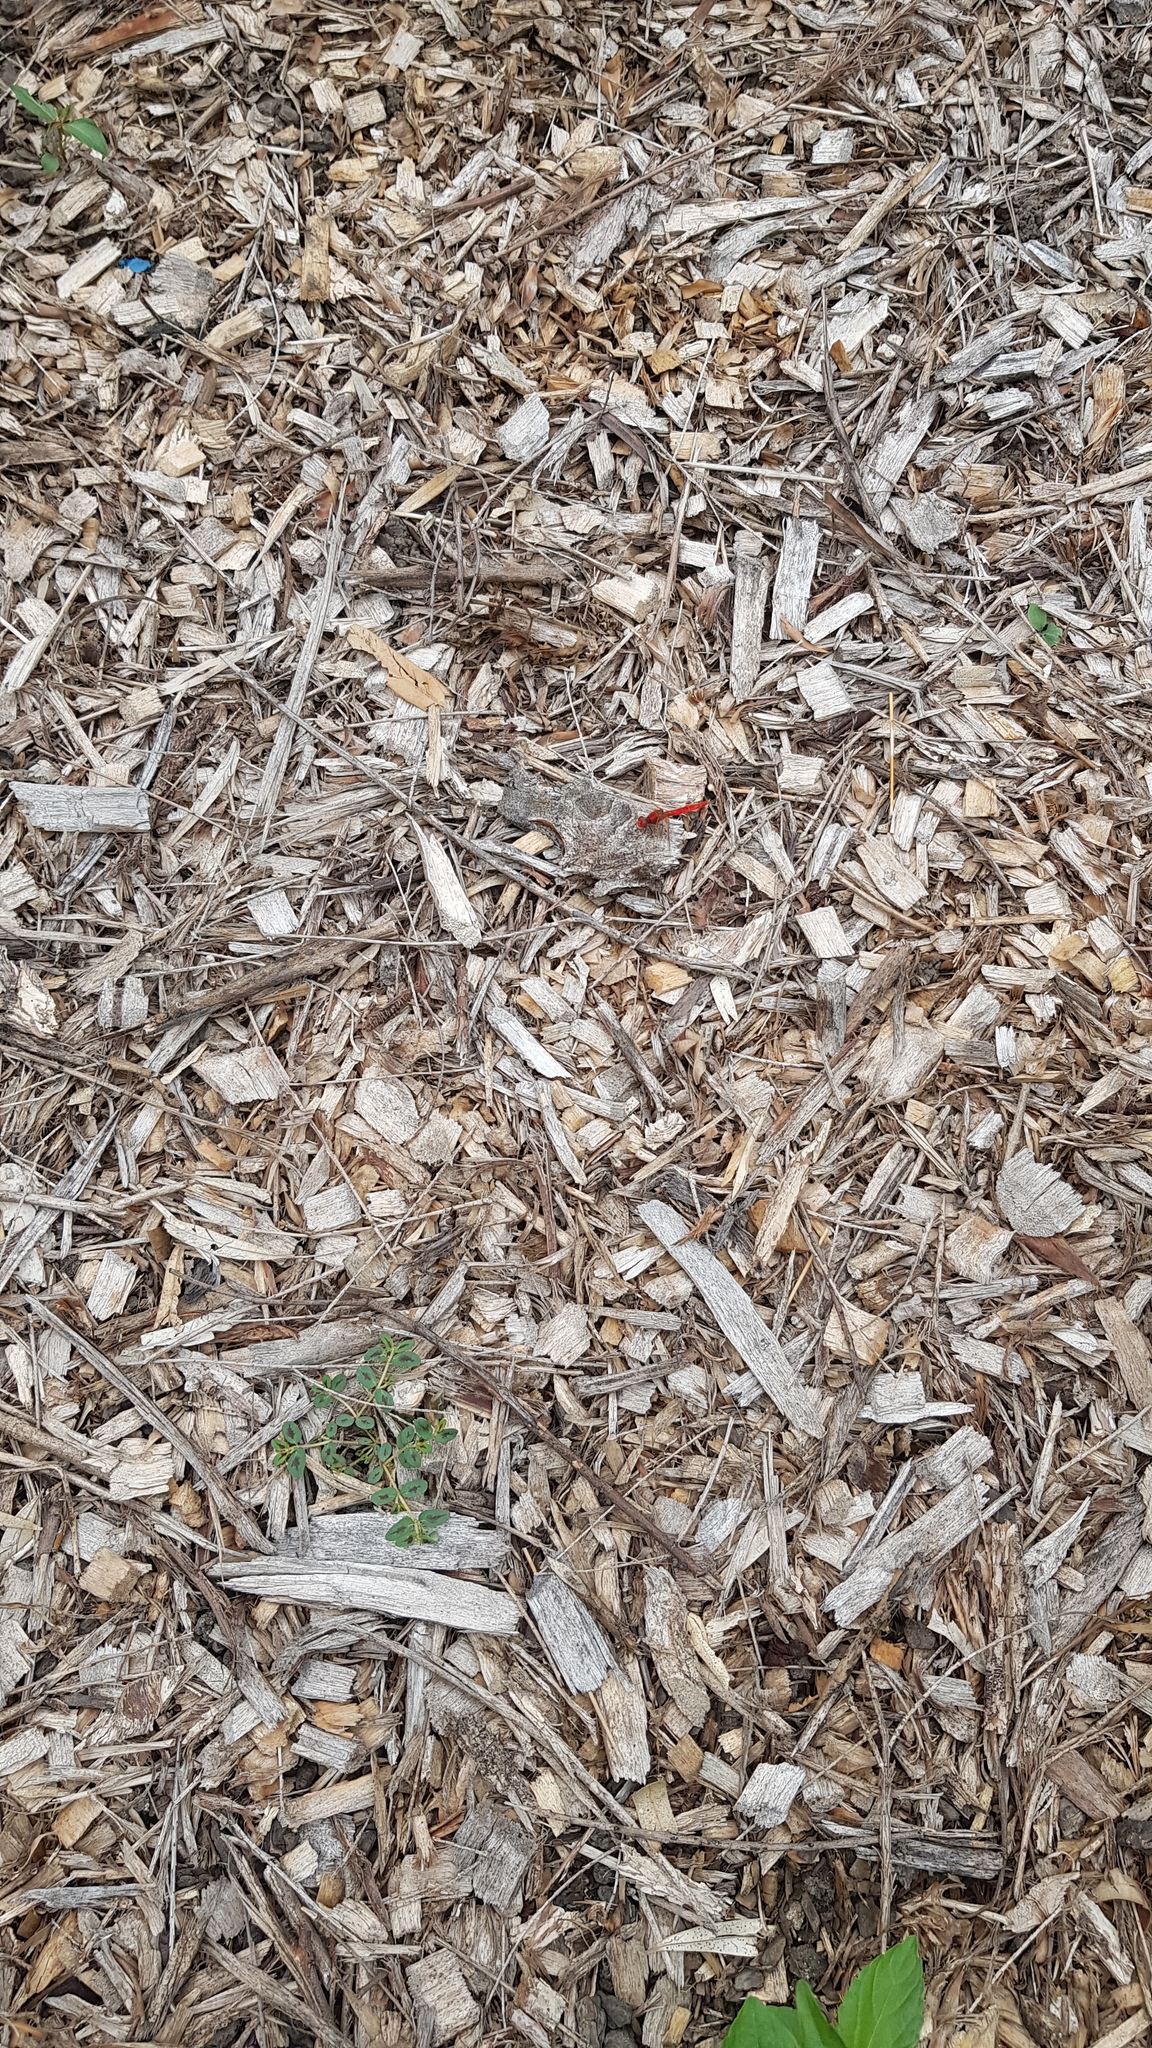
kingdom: Animalia
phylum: Arthropoda
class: Insecta
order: Odonata
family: Libellulidae
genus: Diplacodes
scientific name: Diplacodes haematodes
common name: Scarlet percher
